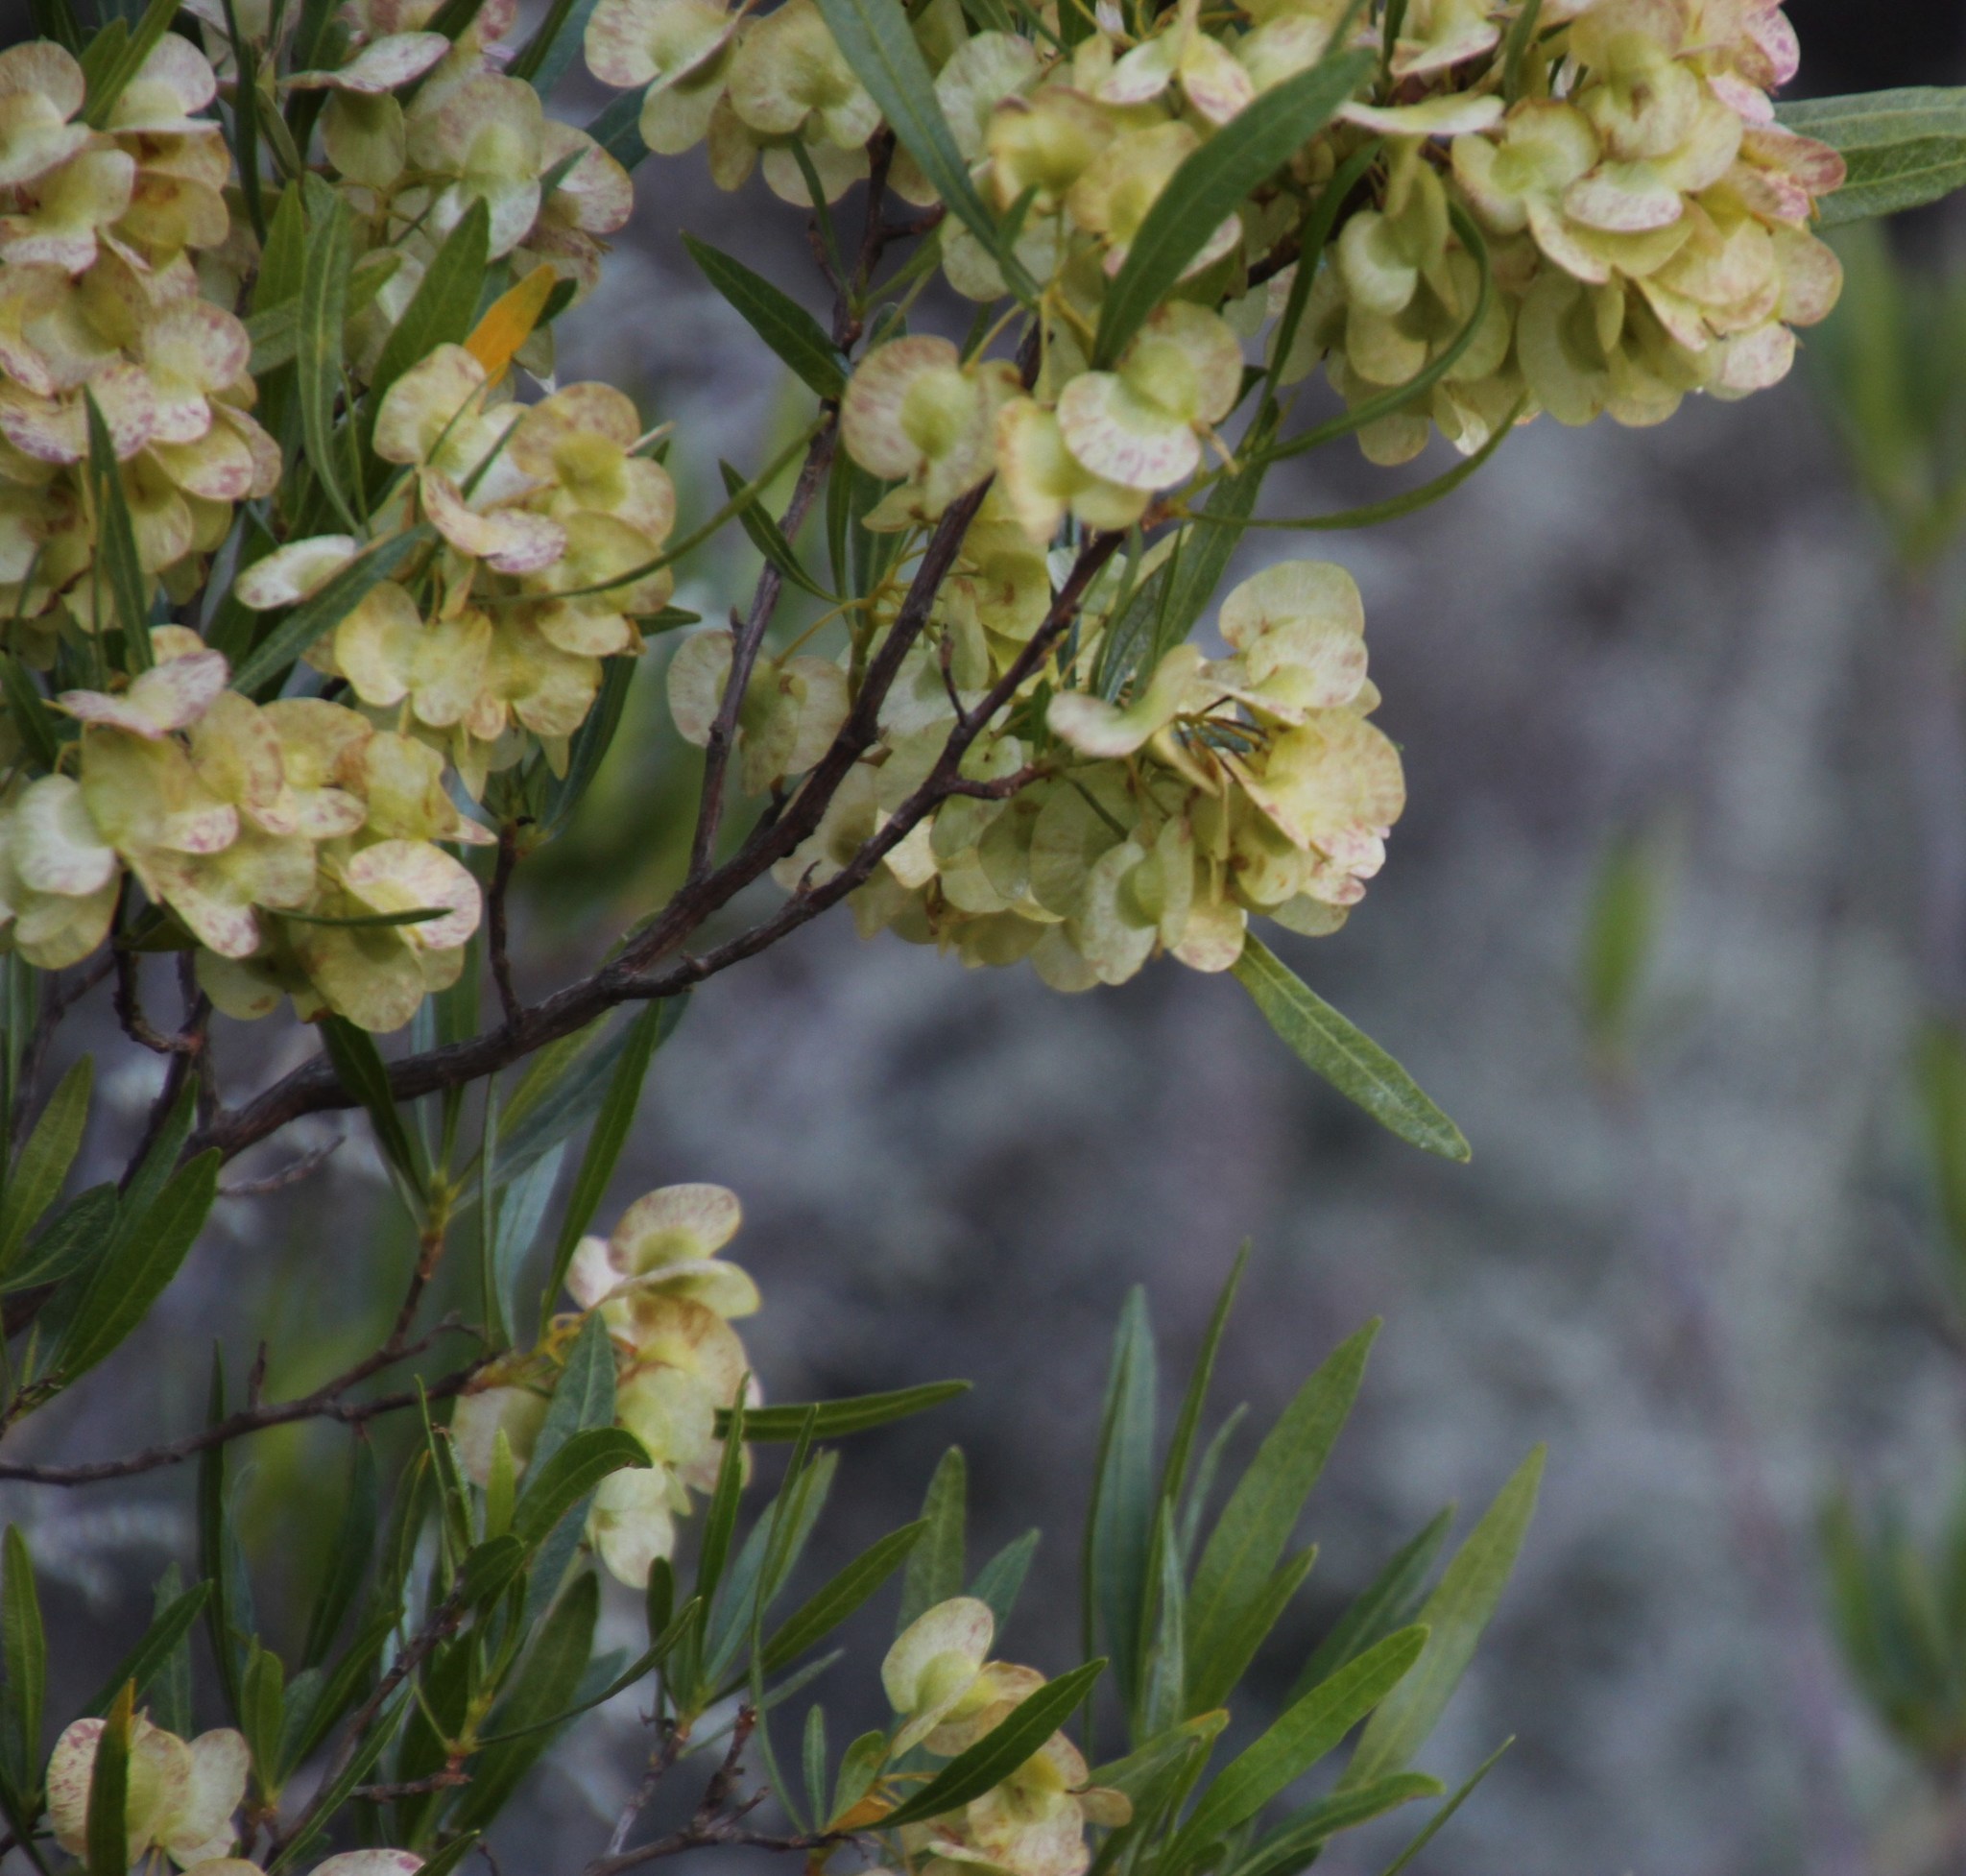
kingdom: Plantae
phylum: Tracheophyta
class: Magnoliopsida
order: Sapindales
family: Sapindaceae
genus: Dodonaea
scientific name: Dodonaea viscosa
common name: Hopbush
